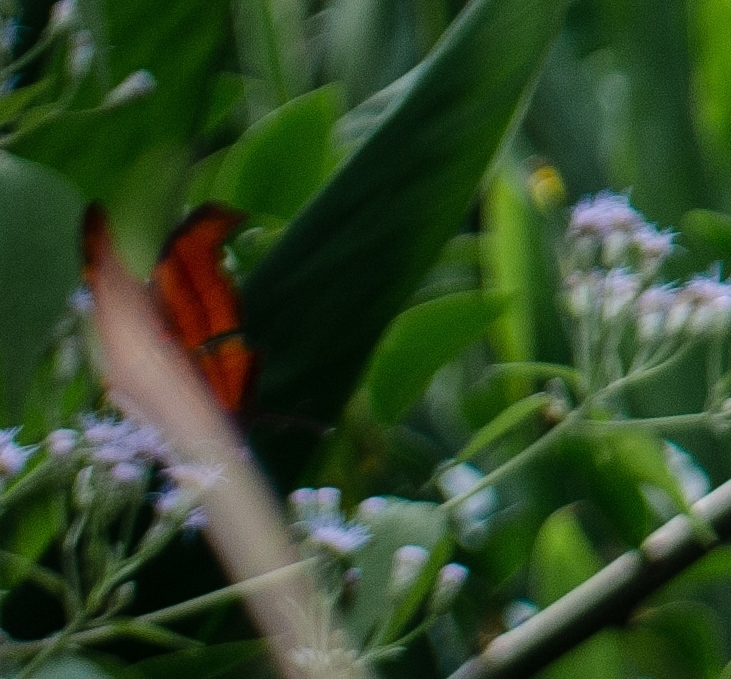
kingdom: Animalia
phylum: Arthropoda
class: Insecta
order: Lepidoptera
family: Nymphalidae
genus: Marpesia
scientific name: Marpesia petreus
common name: Red dagger wing
